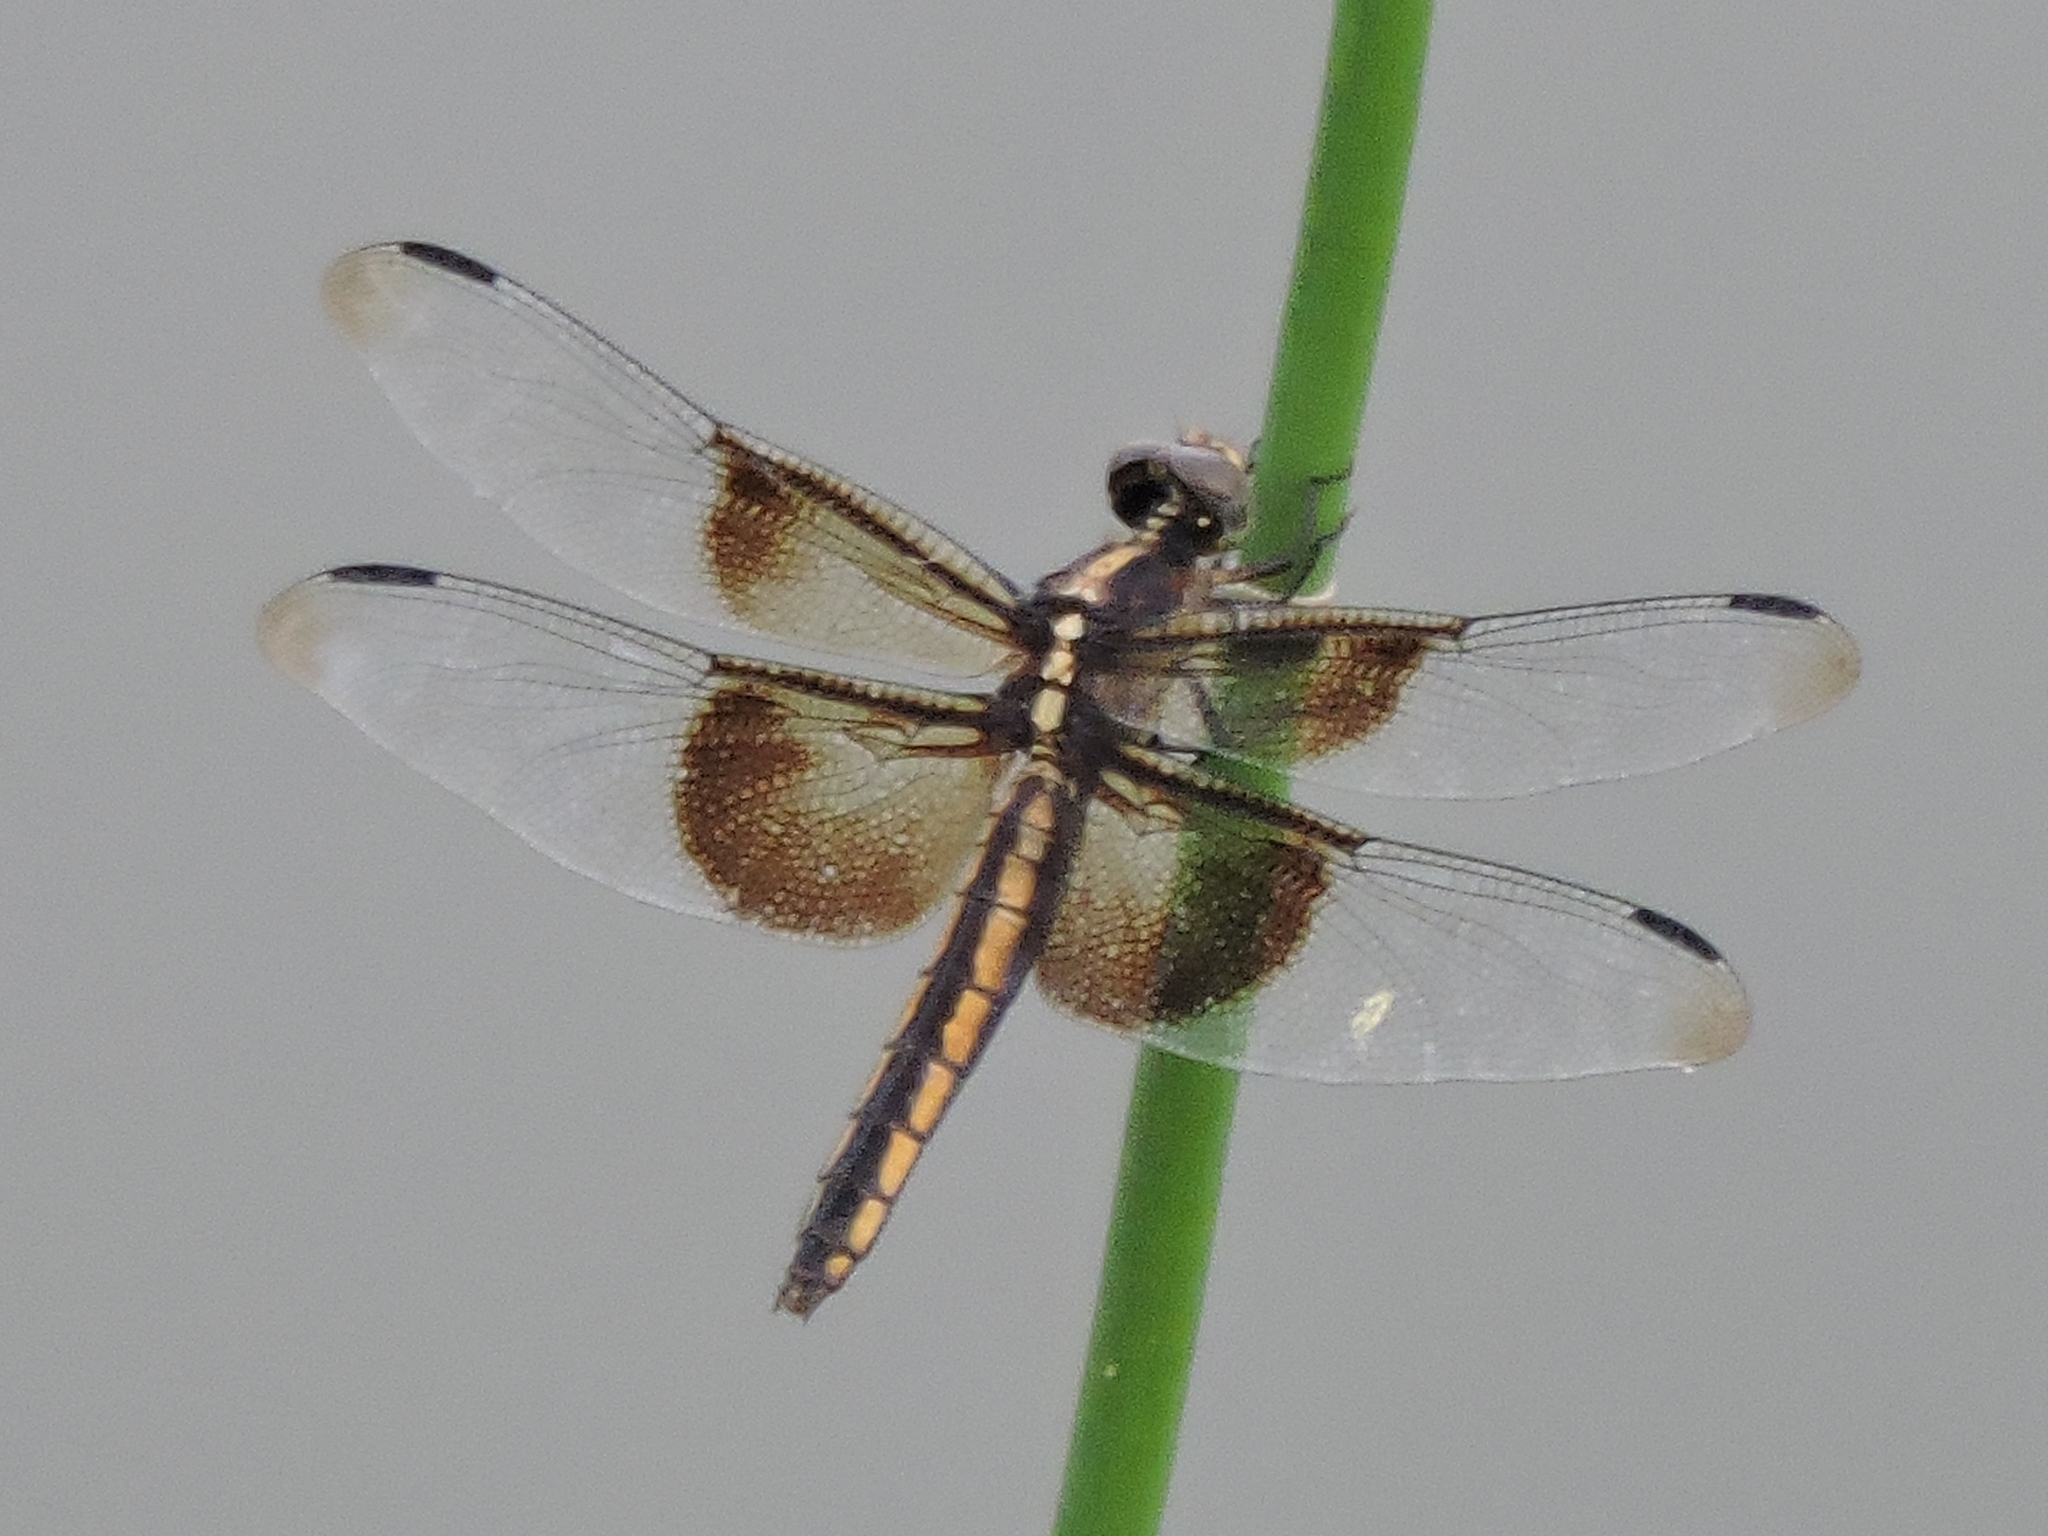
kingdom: Animalia
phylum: Arthropoda
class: Insecta
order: Odonata
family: Libellulidae
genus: Libellula
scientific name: Libellula luctuosa
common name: Widow skimmer
